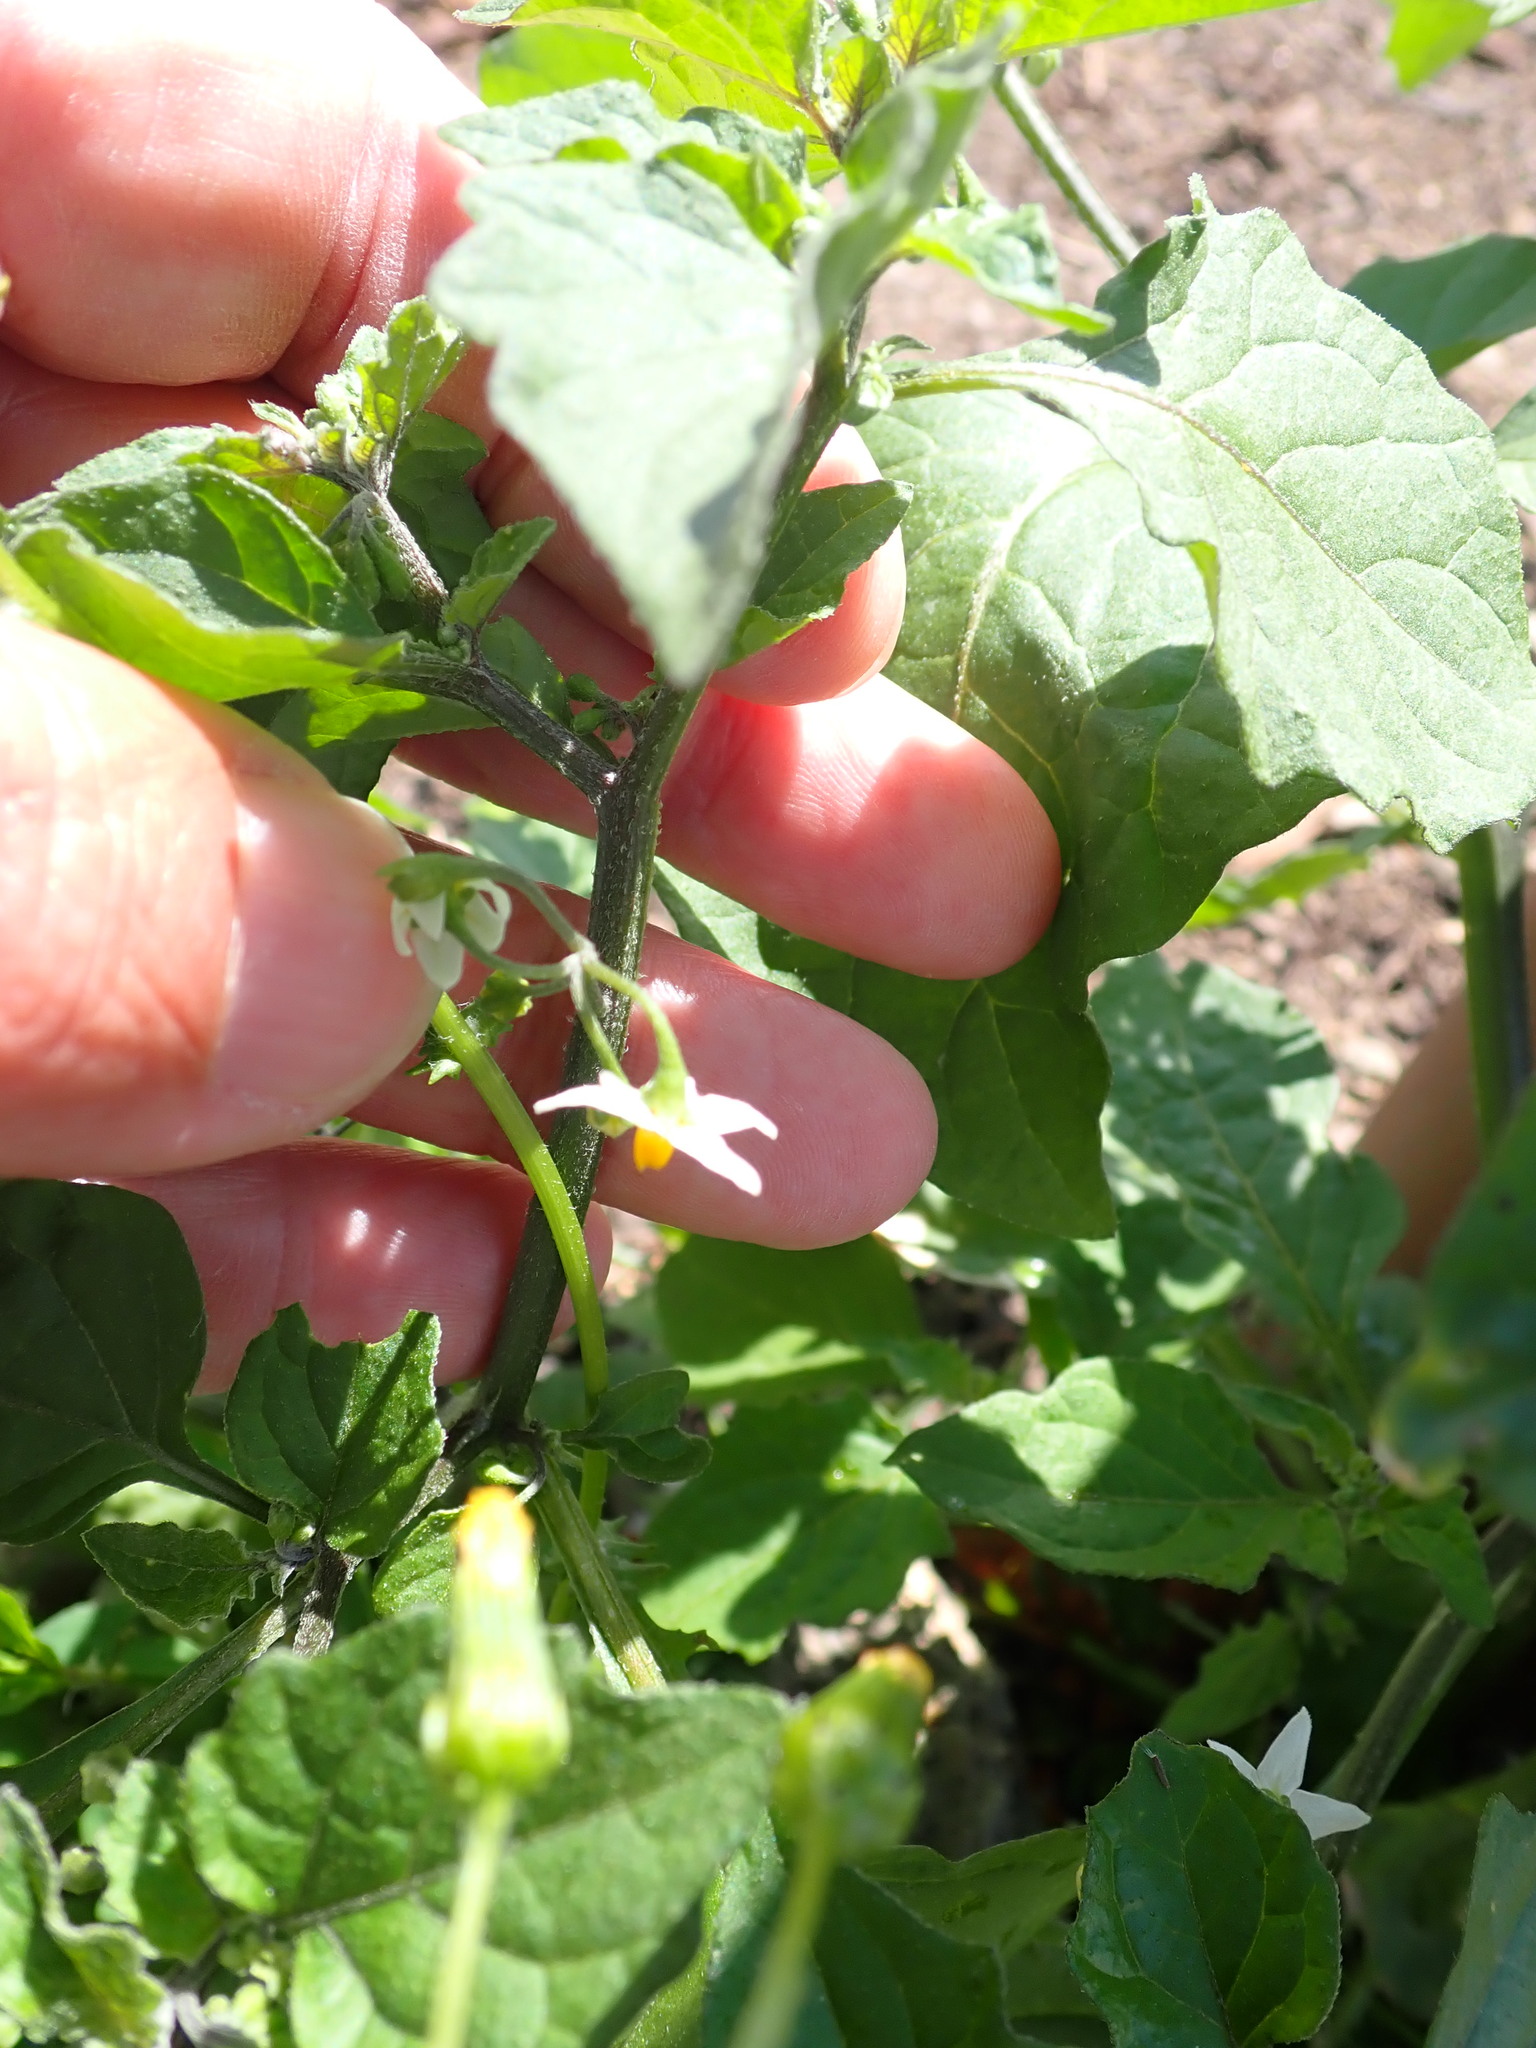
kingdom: Plantae
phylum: Tracheophyta
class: Magnoliopsida
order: Solanales
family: Solanaceae
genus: Solanum
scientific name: Solanum nigrum
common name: Black nightshade
